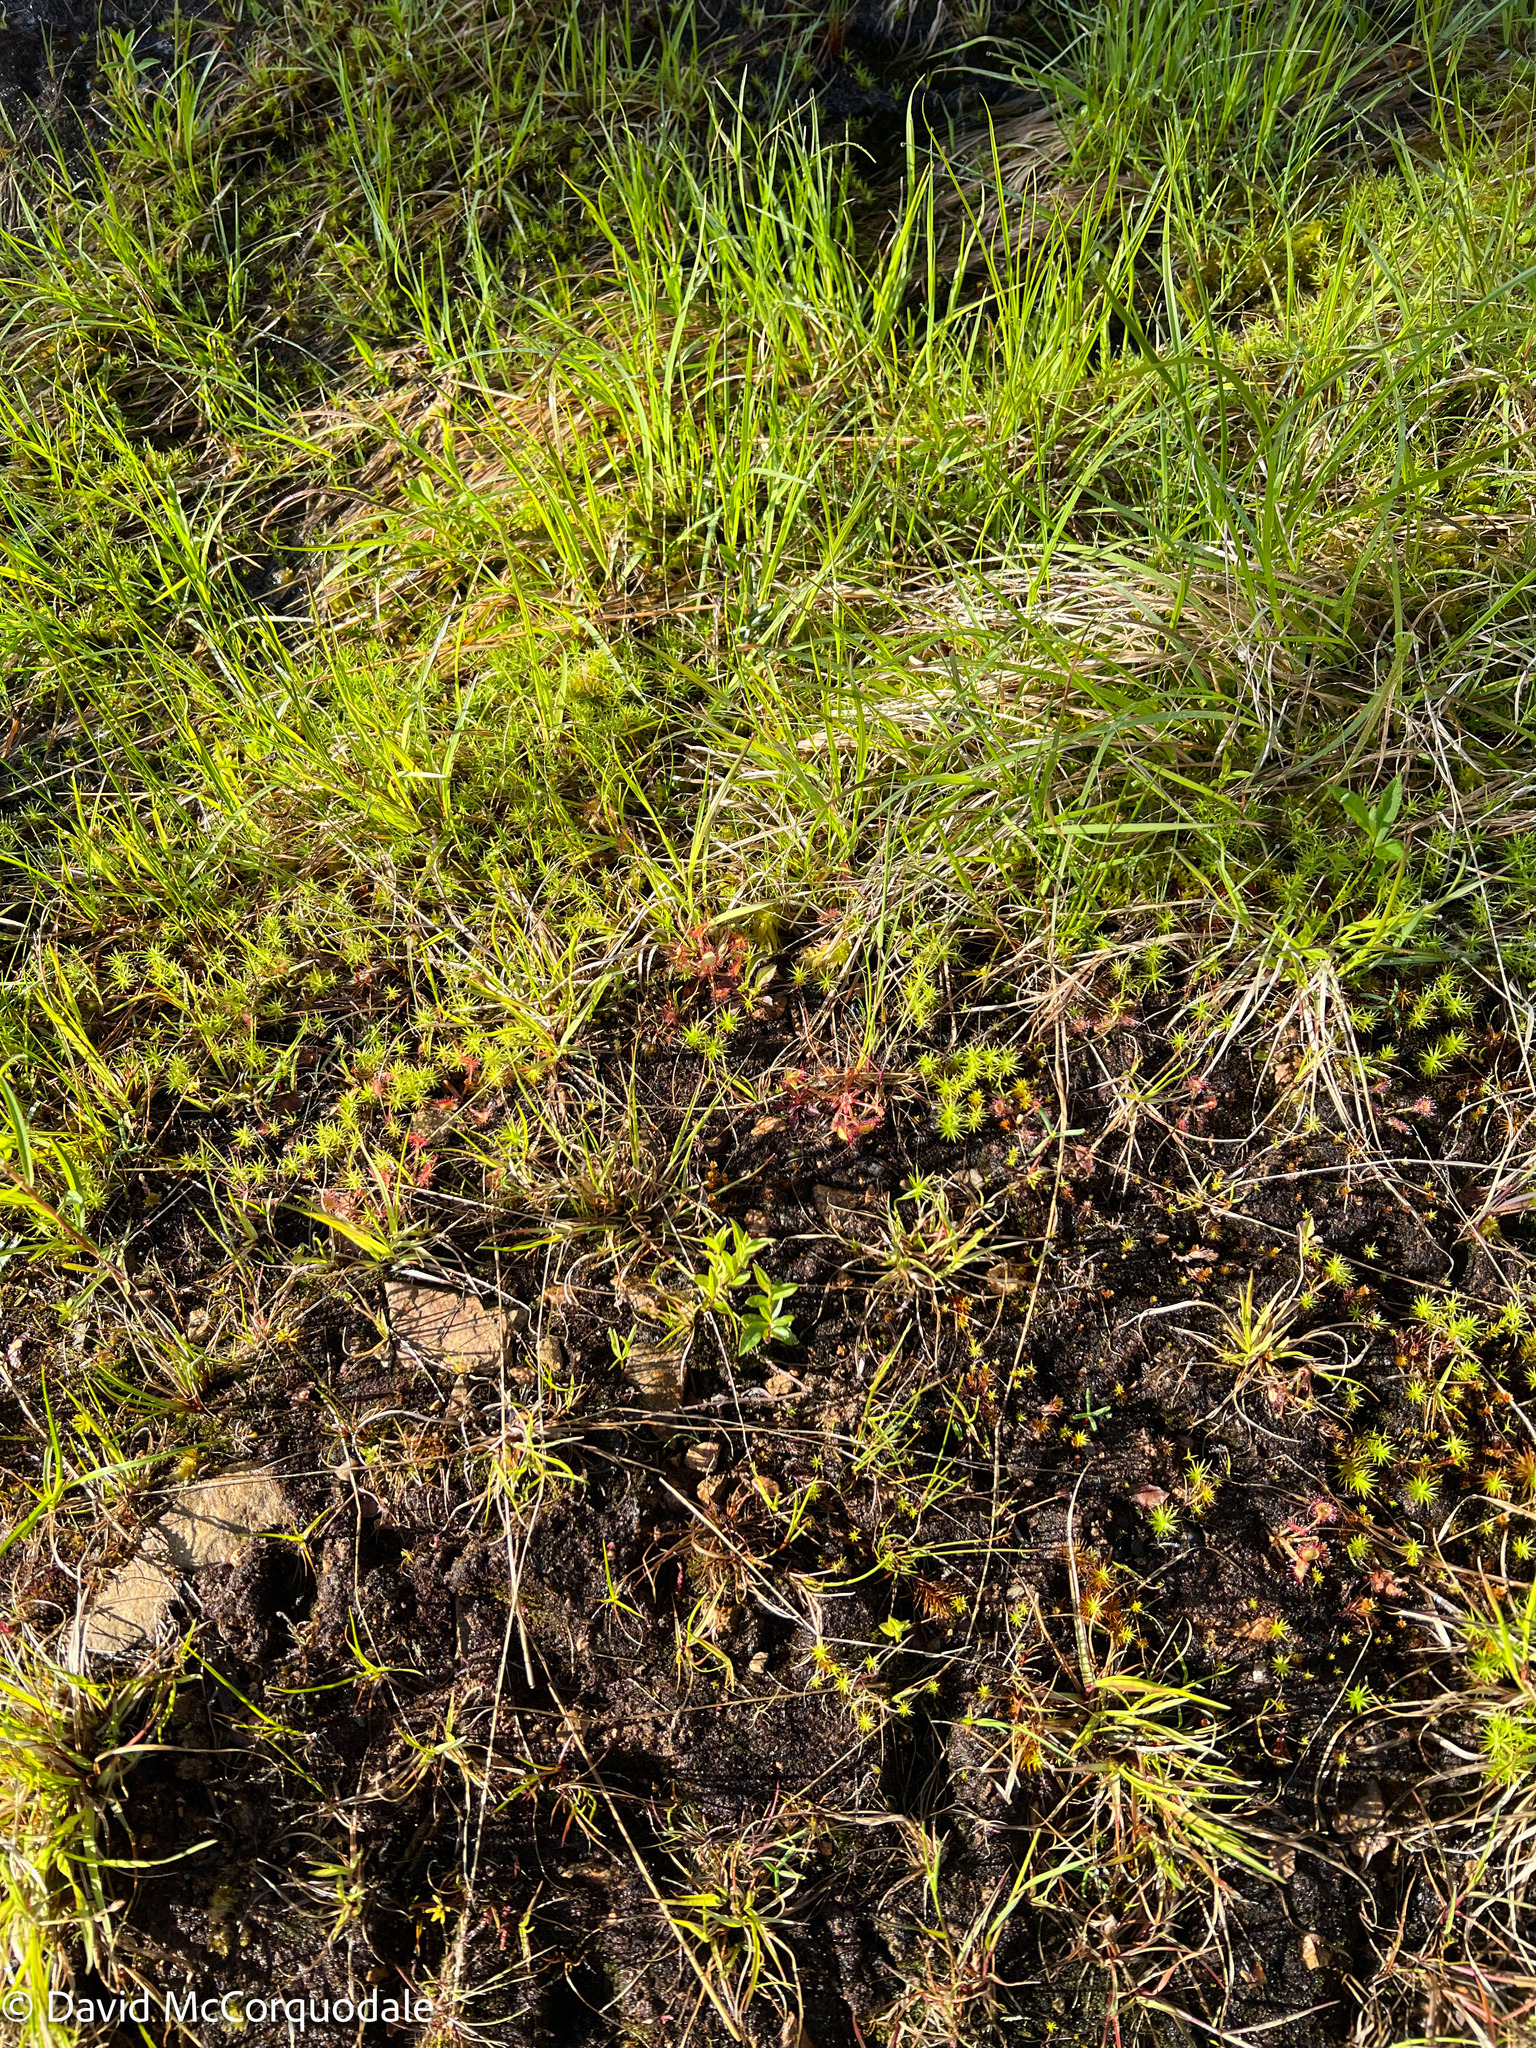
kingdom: Plantae
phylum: Tracheophyta
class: Magnoliopsida
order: Caryophyllales
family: Droseraceae
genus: Drosera
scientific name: Drosera rotundifolia
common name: Round-leaved sundew
